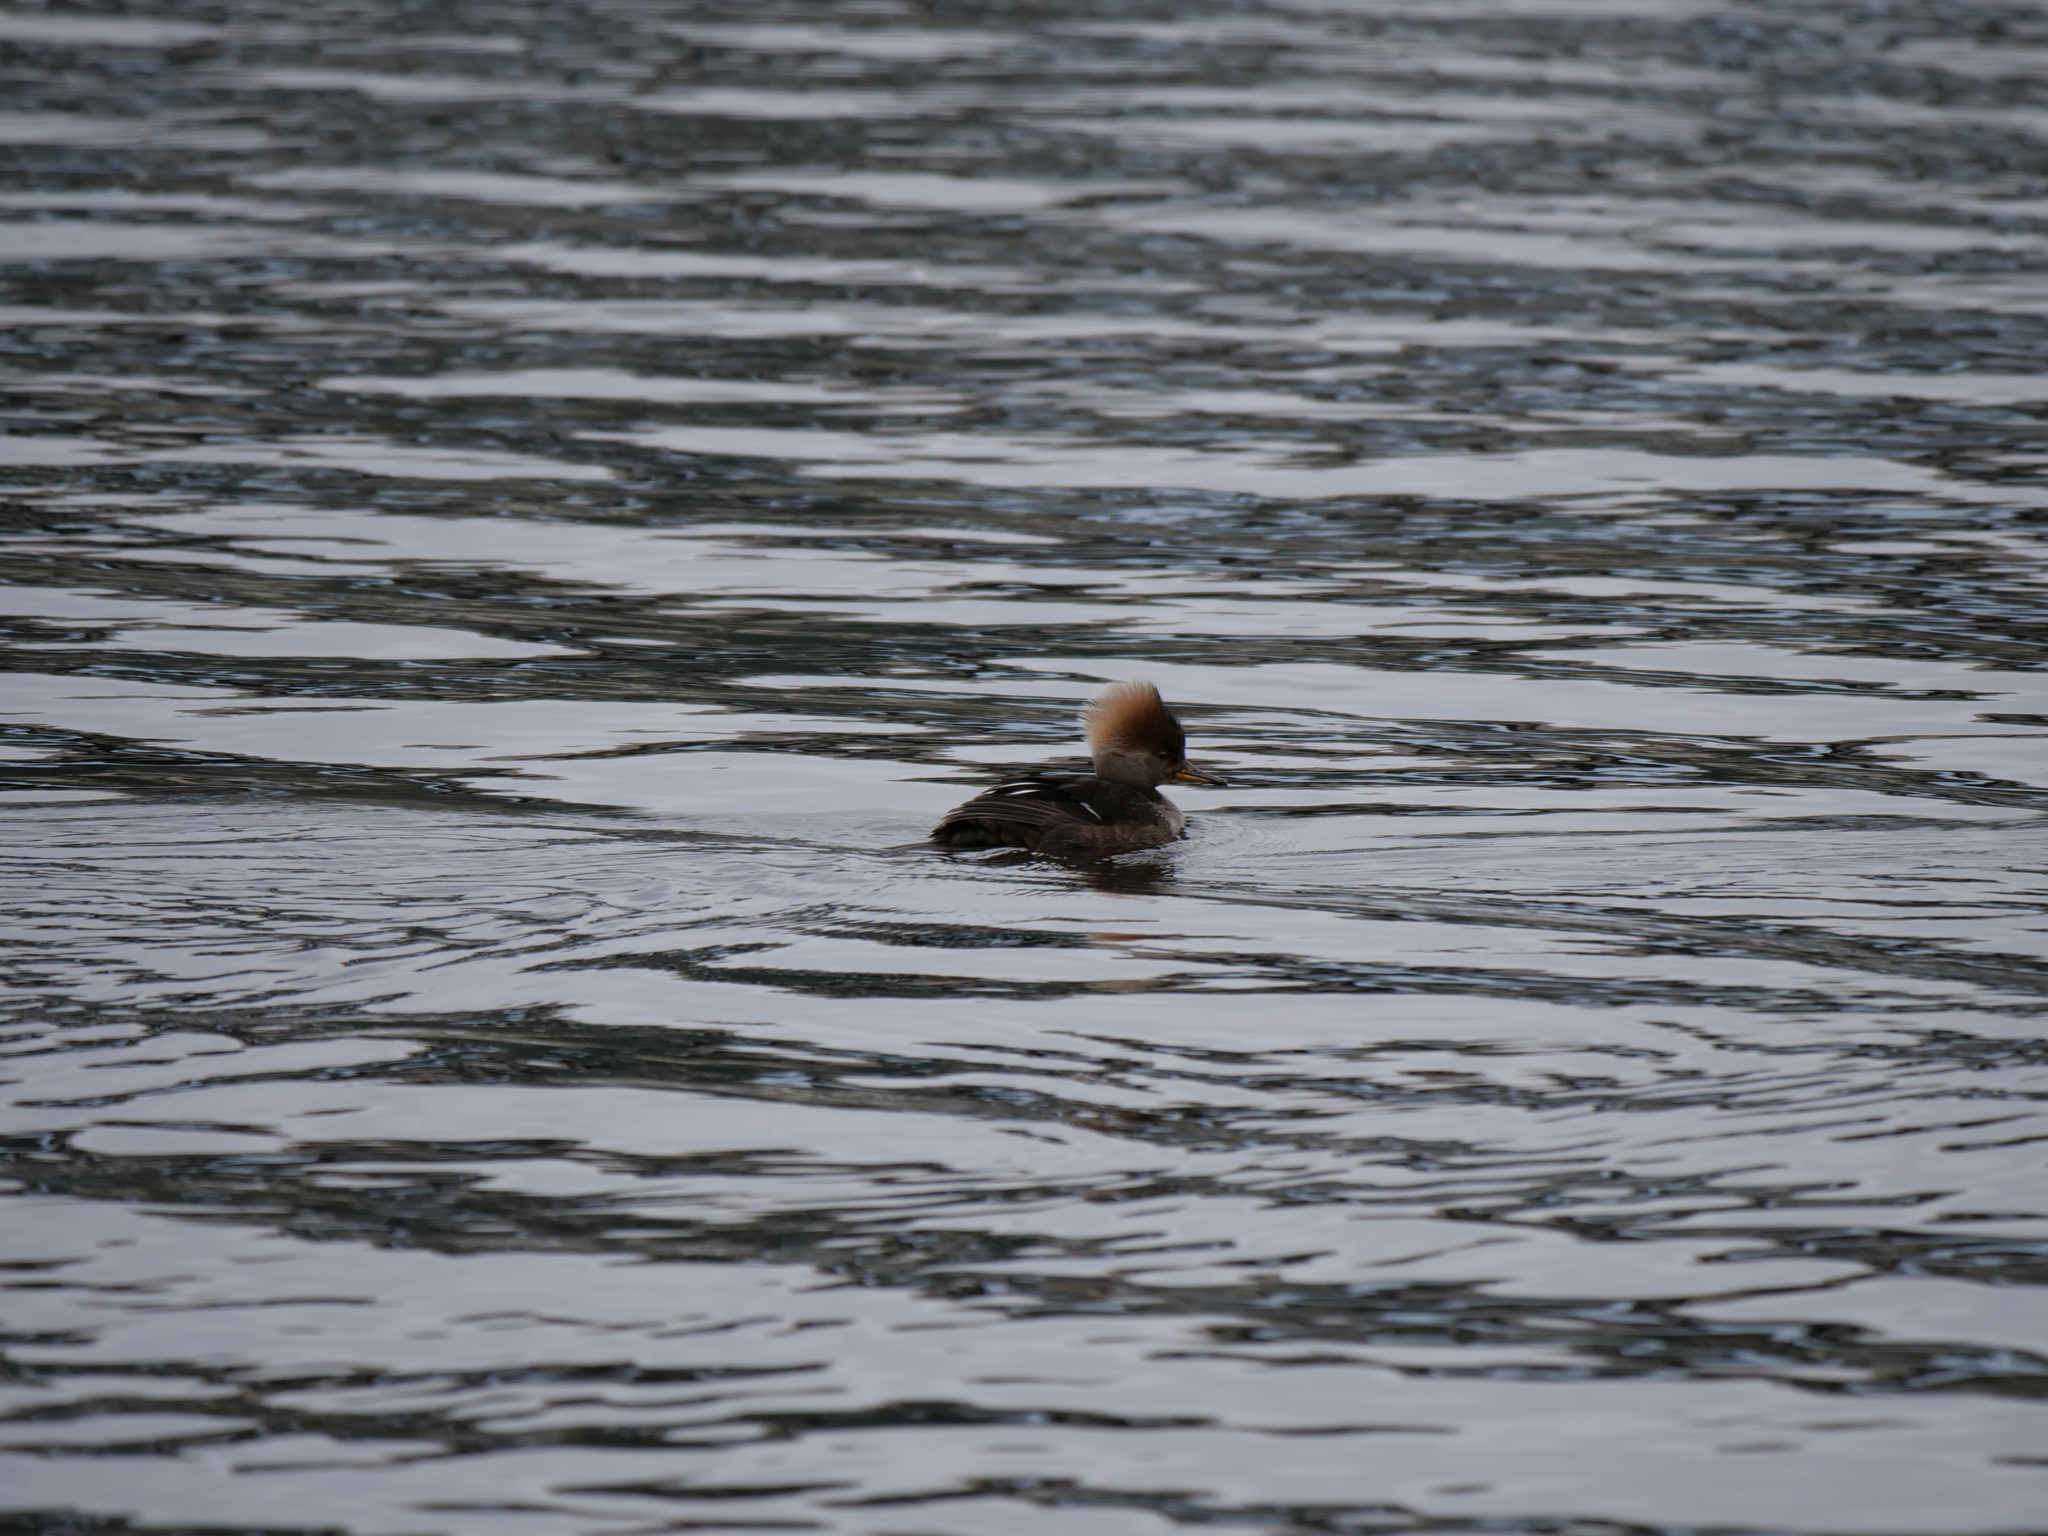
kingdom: Animalia
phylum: Chordata
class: Aves
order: Anseriformes
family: Anatidae
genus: Lophodytes
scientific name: Lophodytes cucullatus
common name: Hooded merganser
